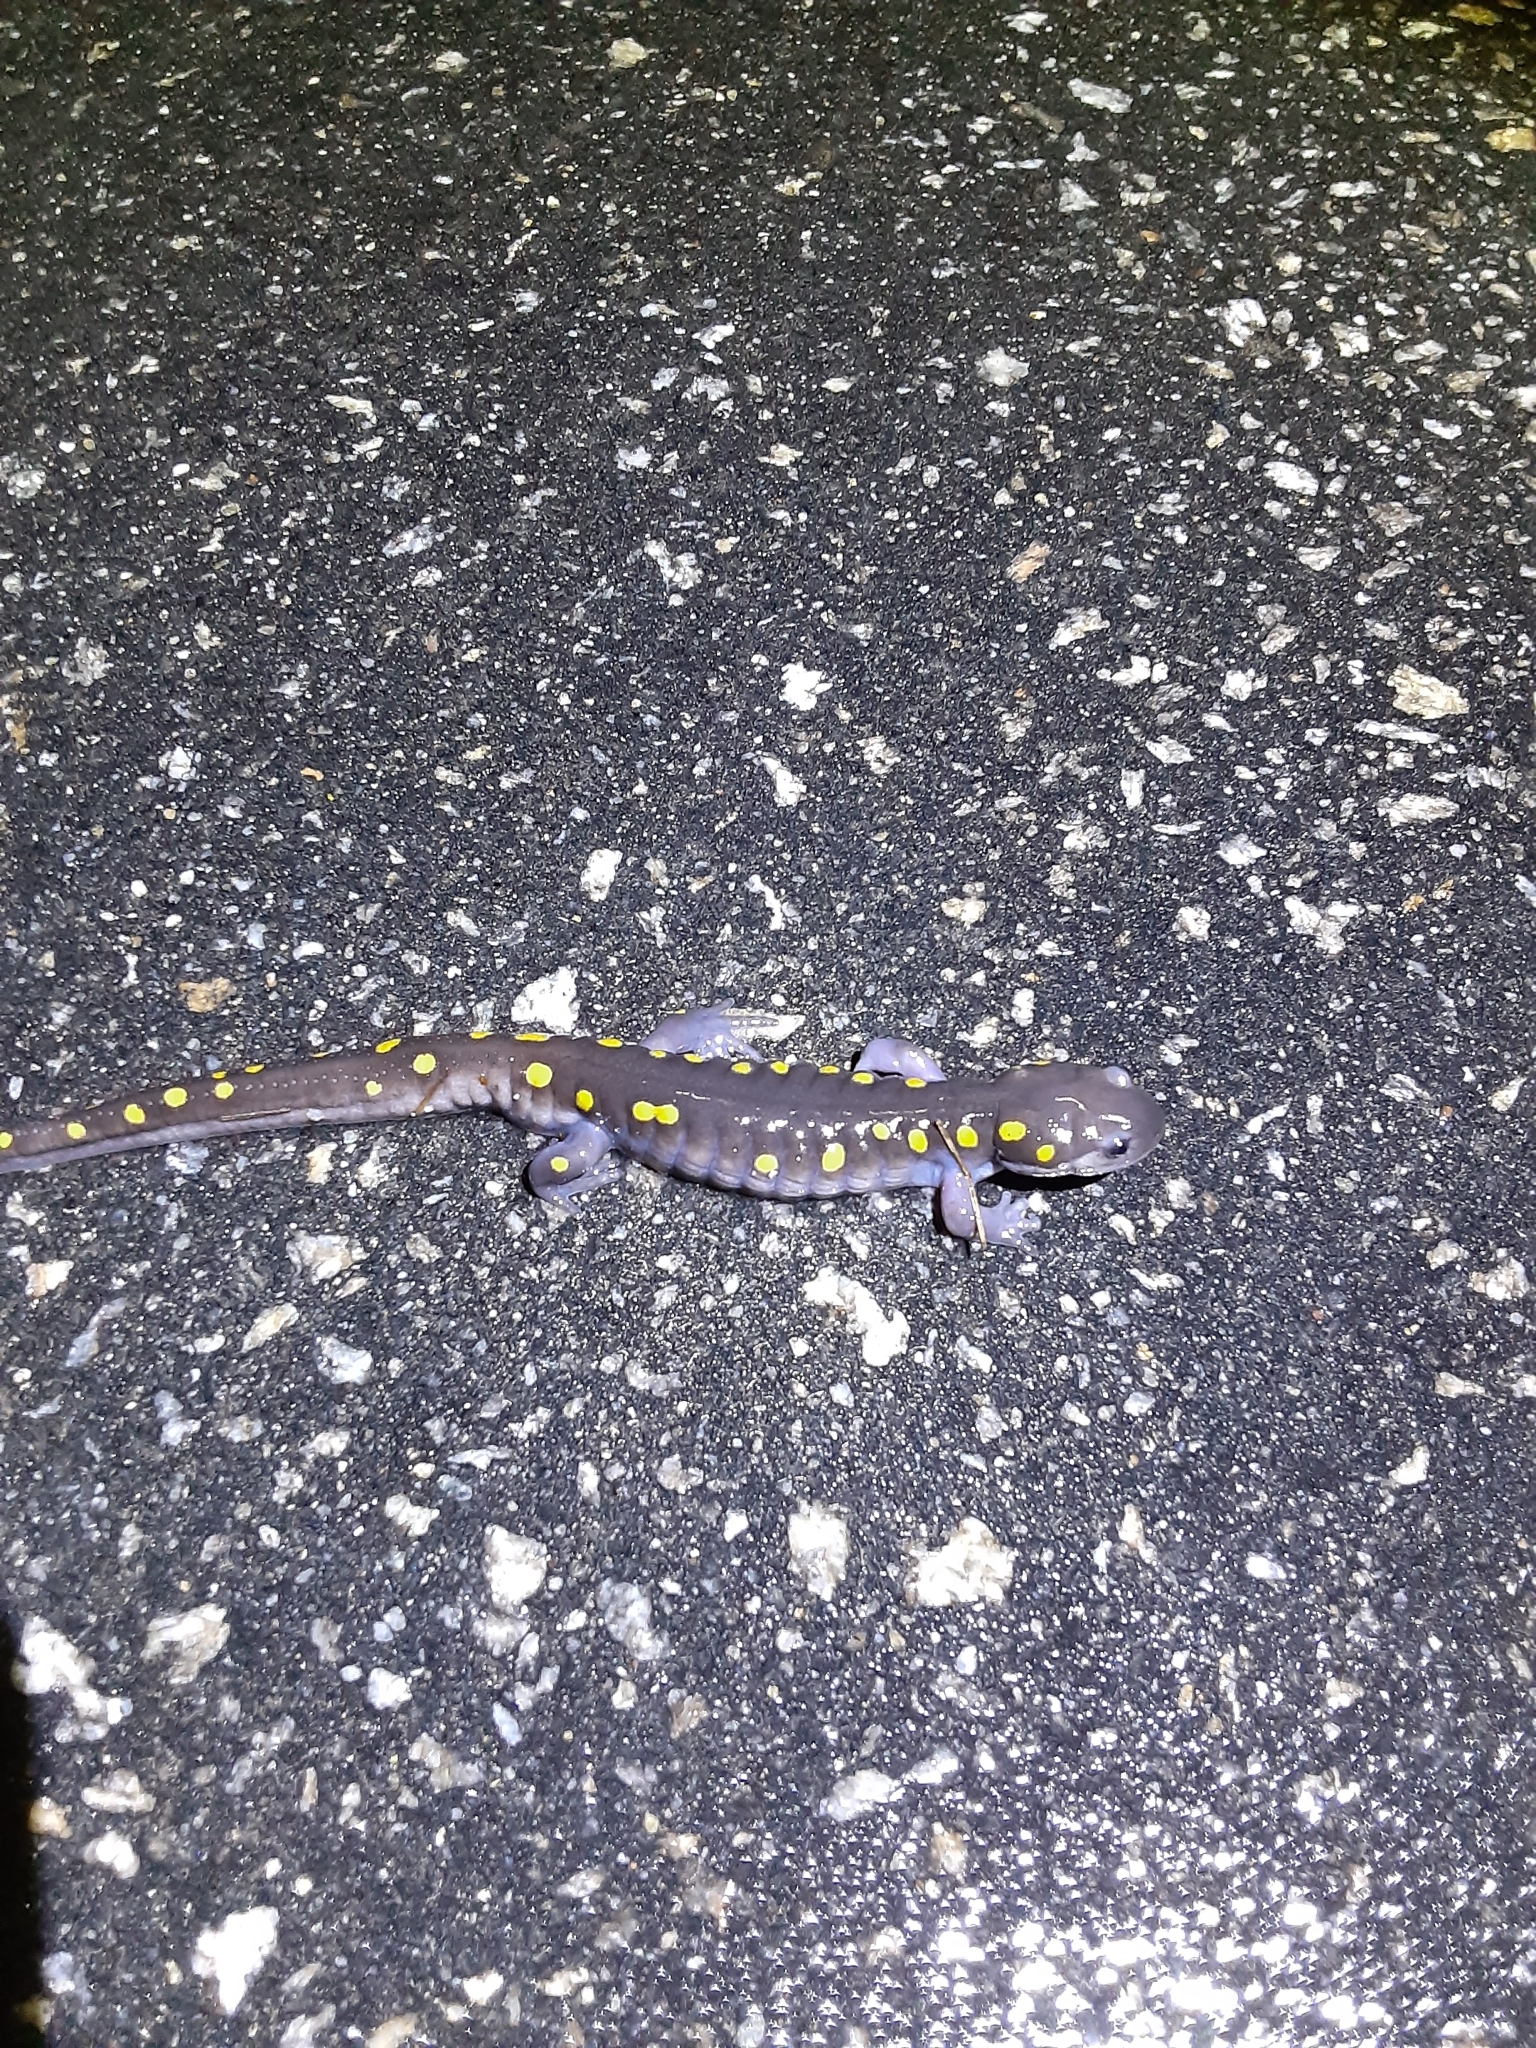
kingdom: Animalia
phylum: Chordata
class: Amphibia
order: Caudata
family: Ambystomatidae
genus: Ambystoma
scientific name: Ambystoma maculatum
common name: Spotted salamander
